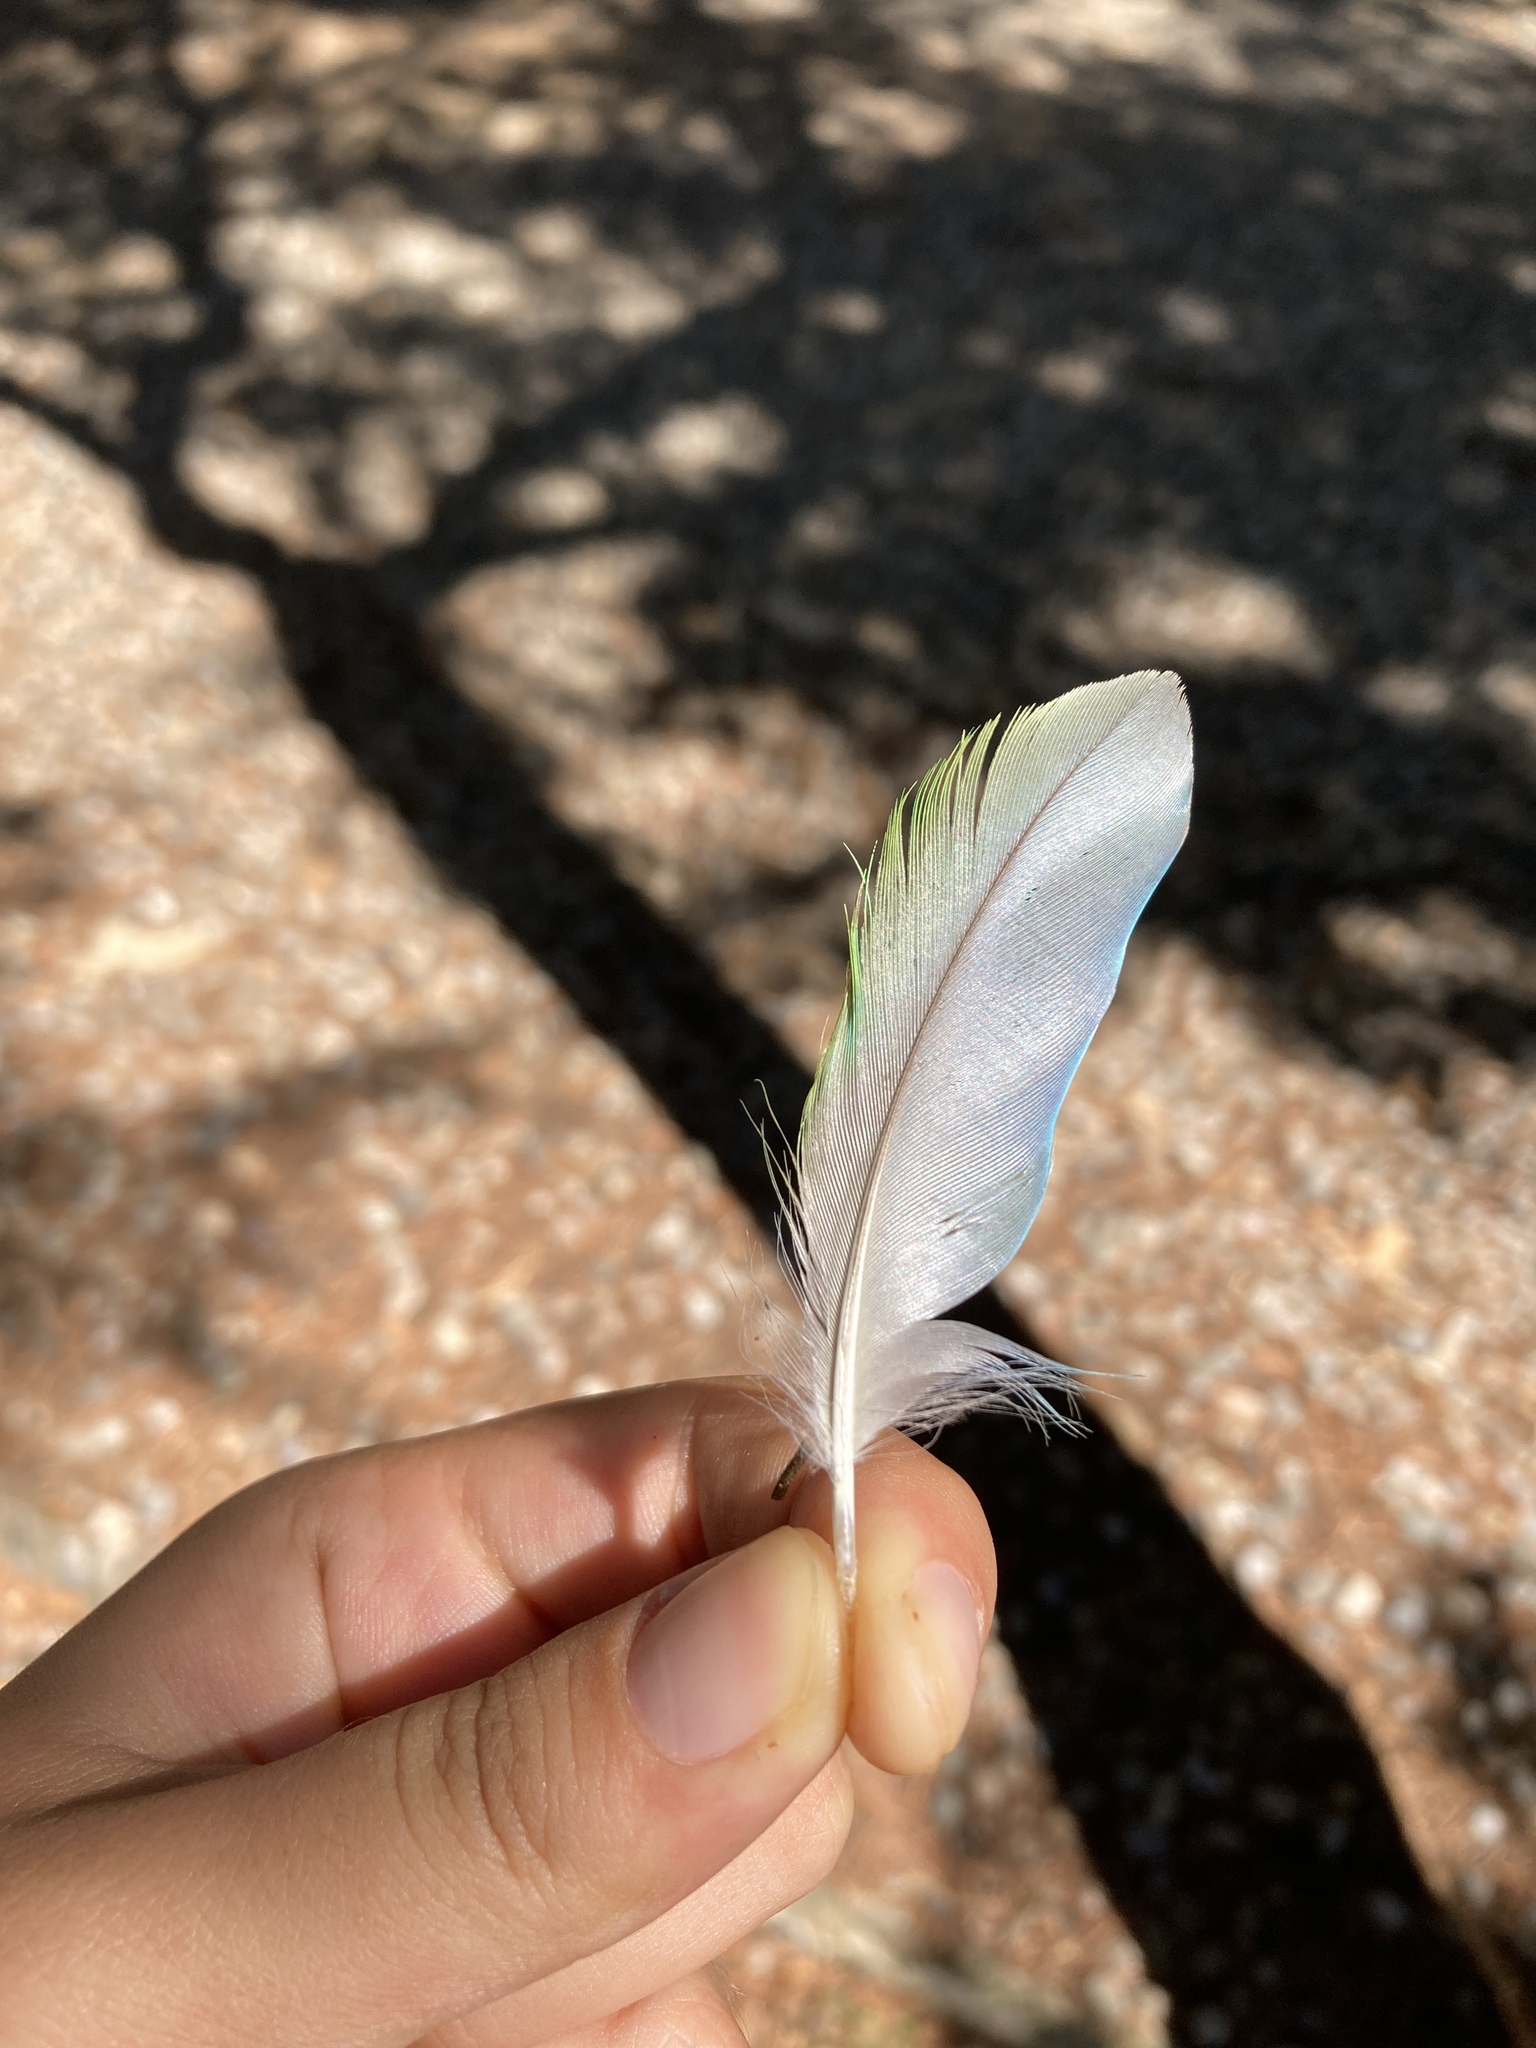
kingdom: Animalia
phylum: Chordata
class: Aves
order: Psittaciformes
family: Psittacidae
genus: Myiopsitta
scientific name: Myiopsitta monachus
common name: Monk parakeet
